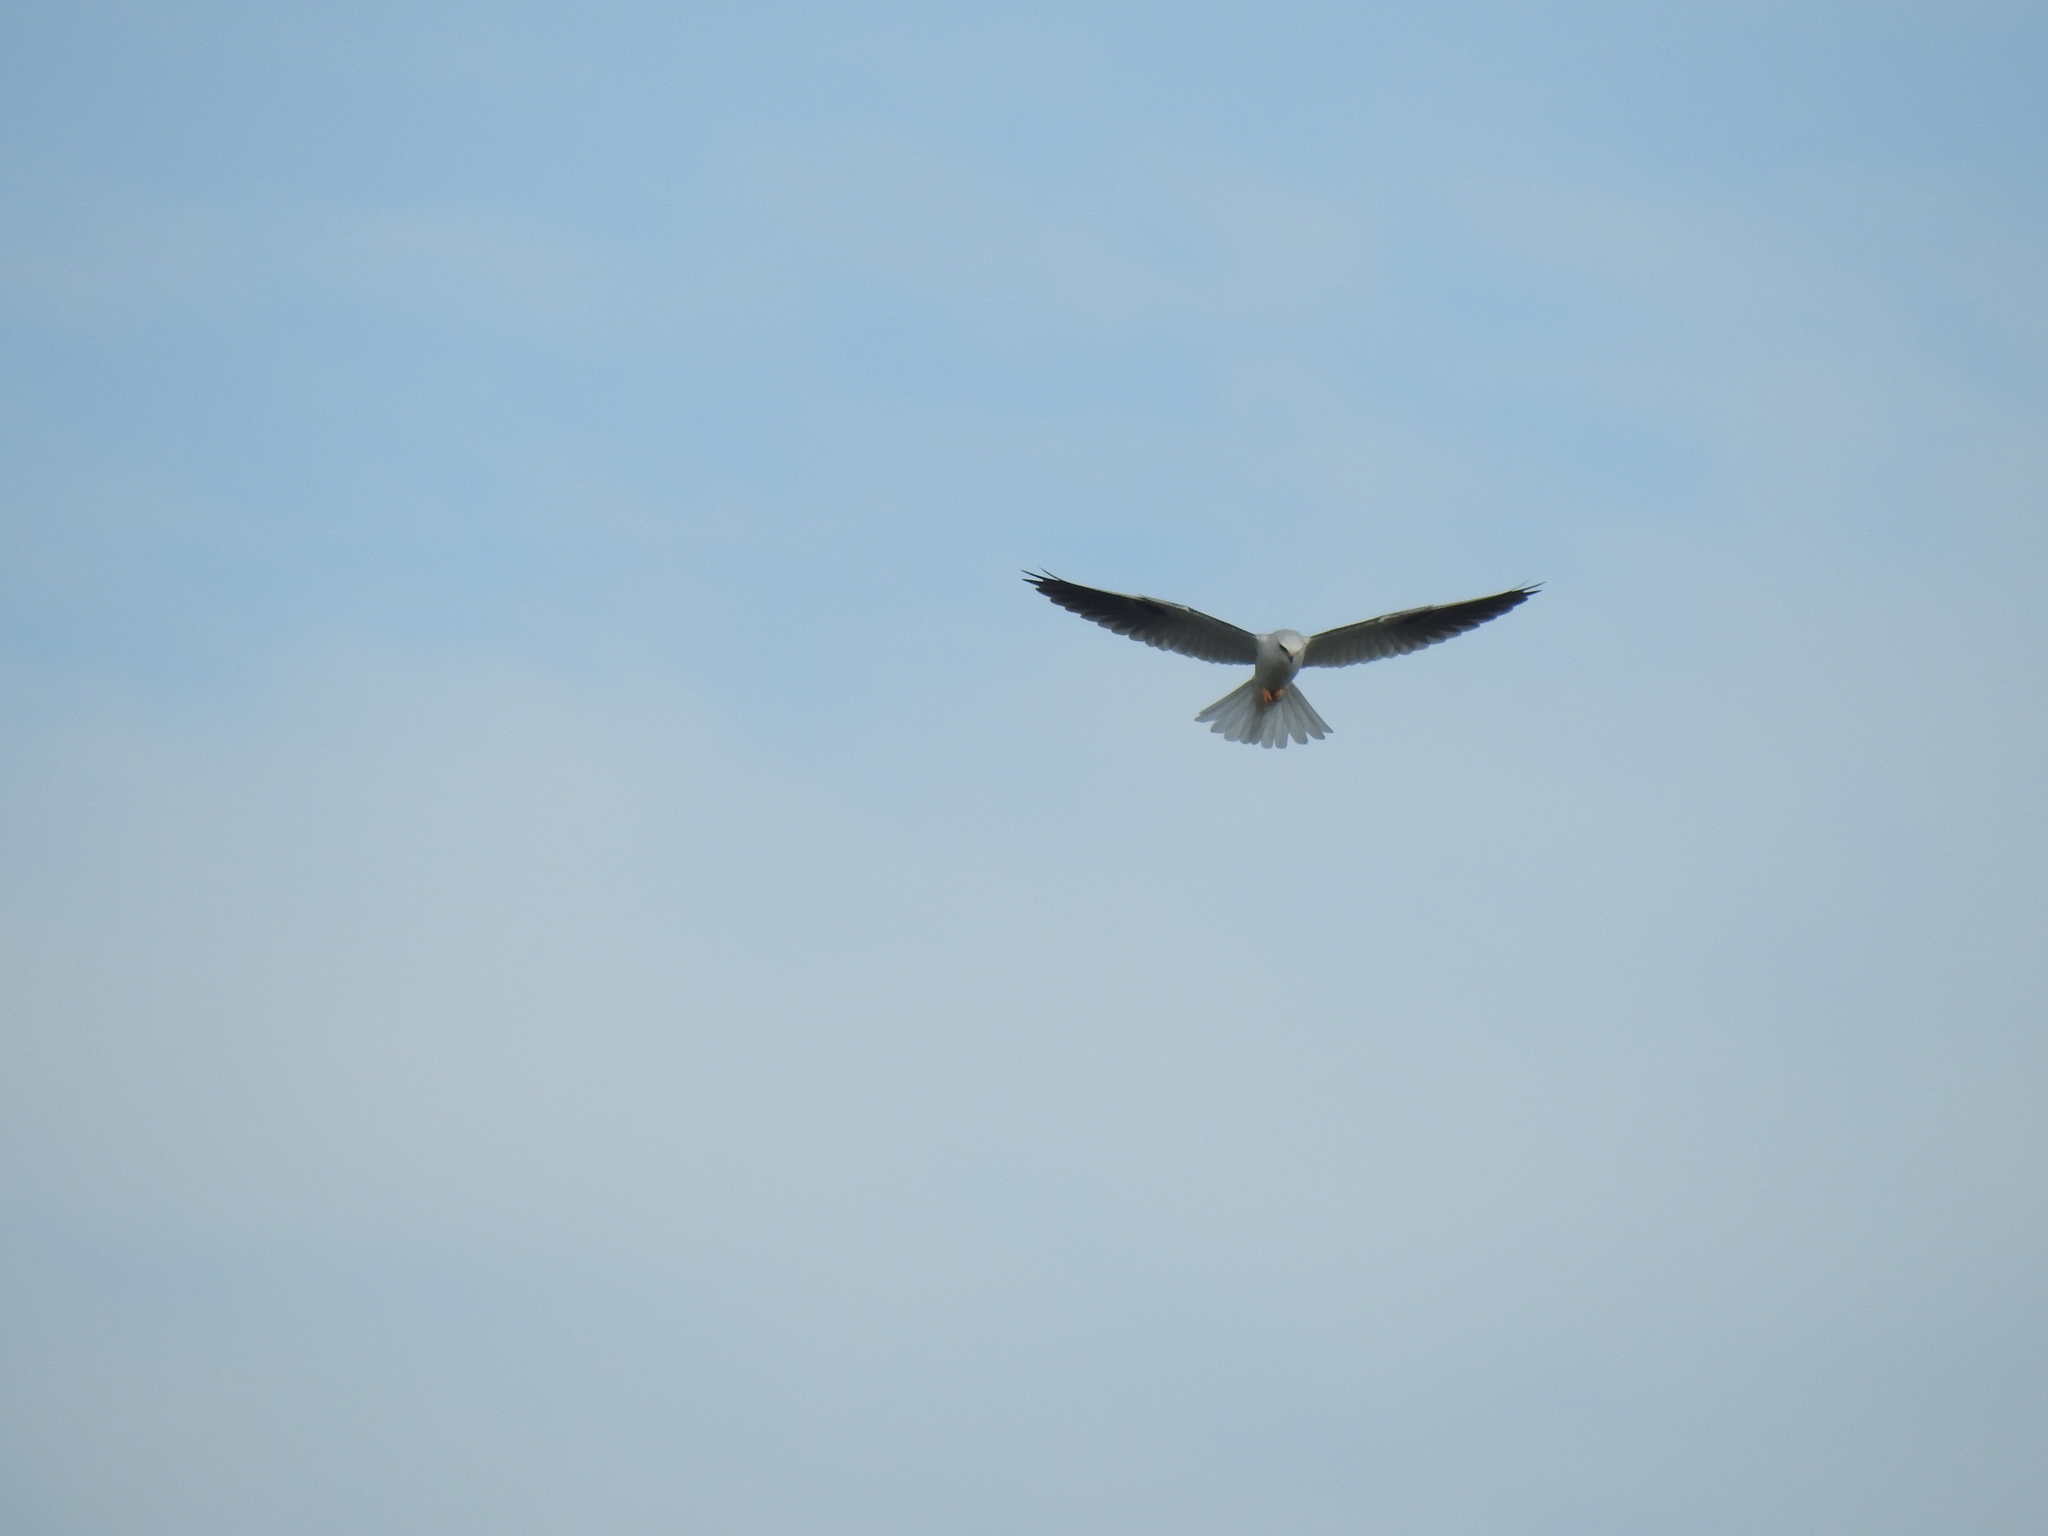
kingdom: Animalia
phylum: Chordata
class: Aves
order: Accipitriformes
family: Accipitridae
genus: Elanus
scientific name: Elanus leucurus
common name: White-tailed kite
